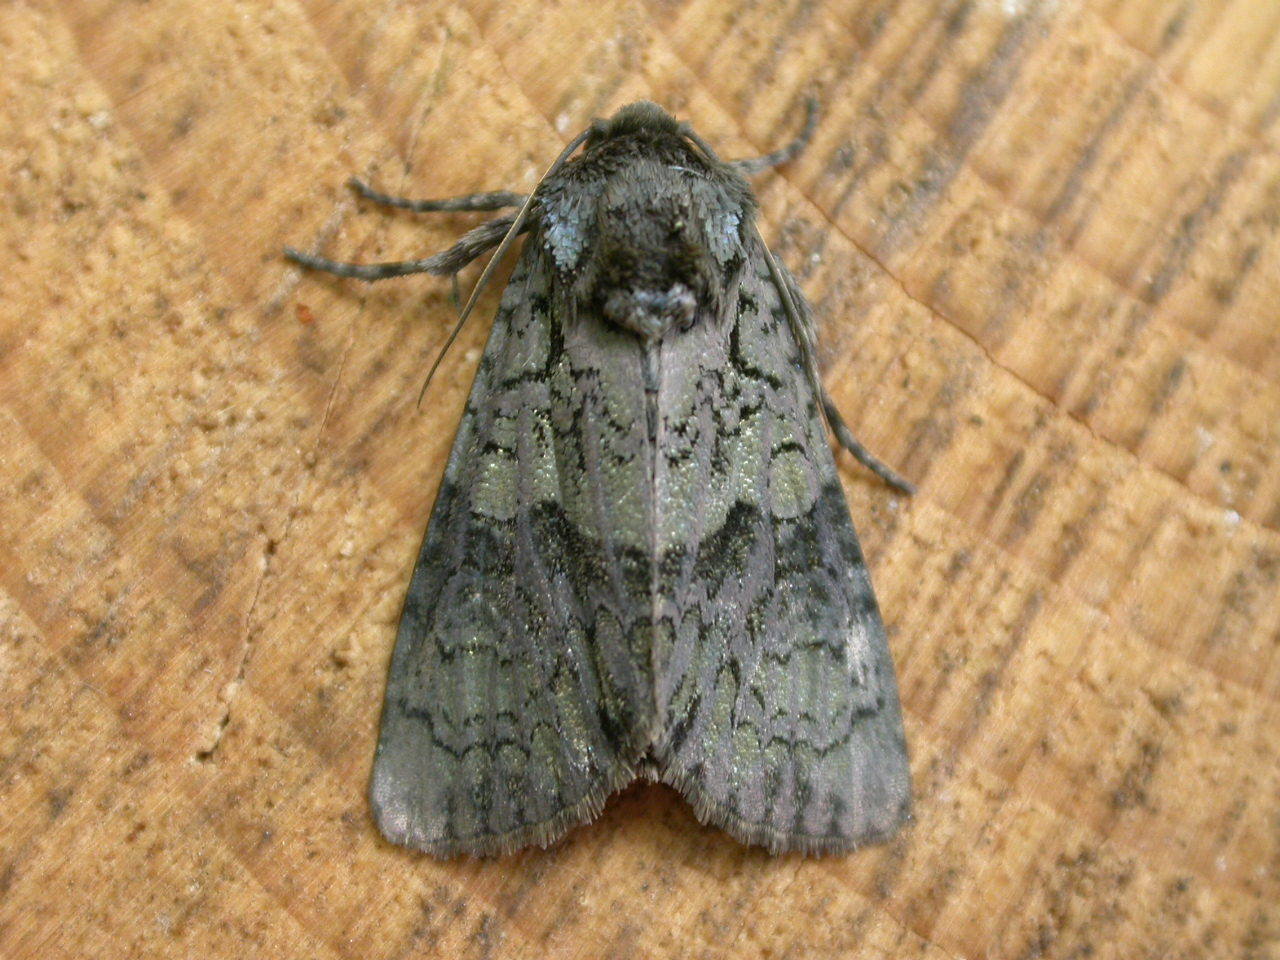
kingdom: Animalia
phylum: Arthropoda
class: Insecta
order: Lepidoptera
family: Noctuidae
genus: Craniophora
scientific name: Craniophora ligustri
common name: Coronet
